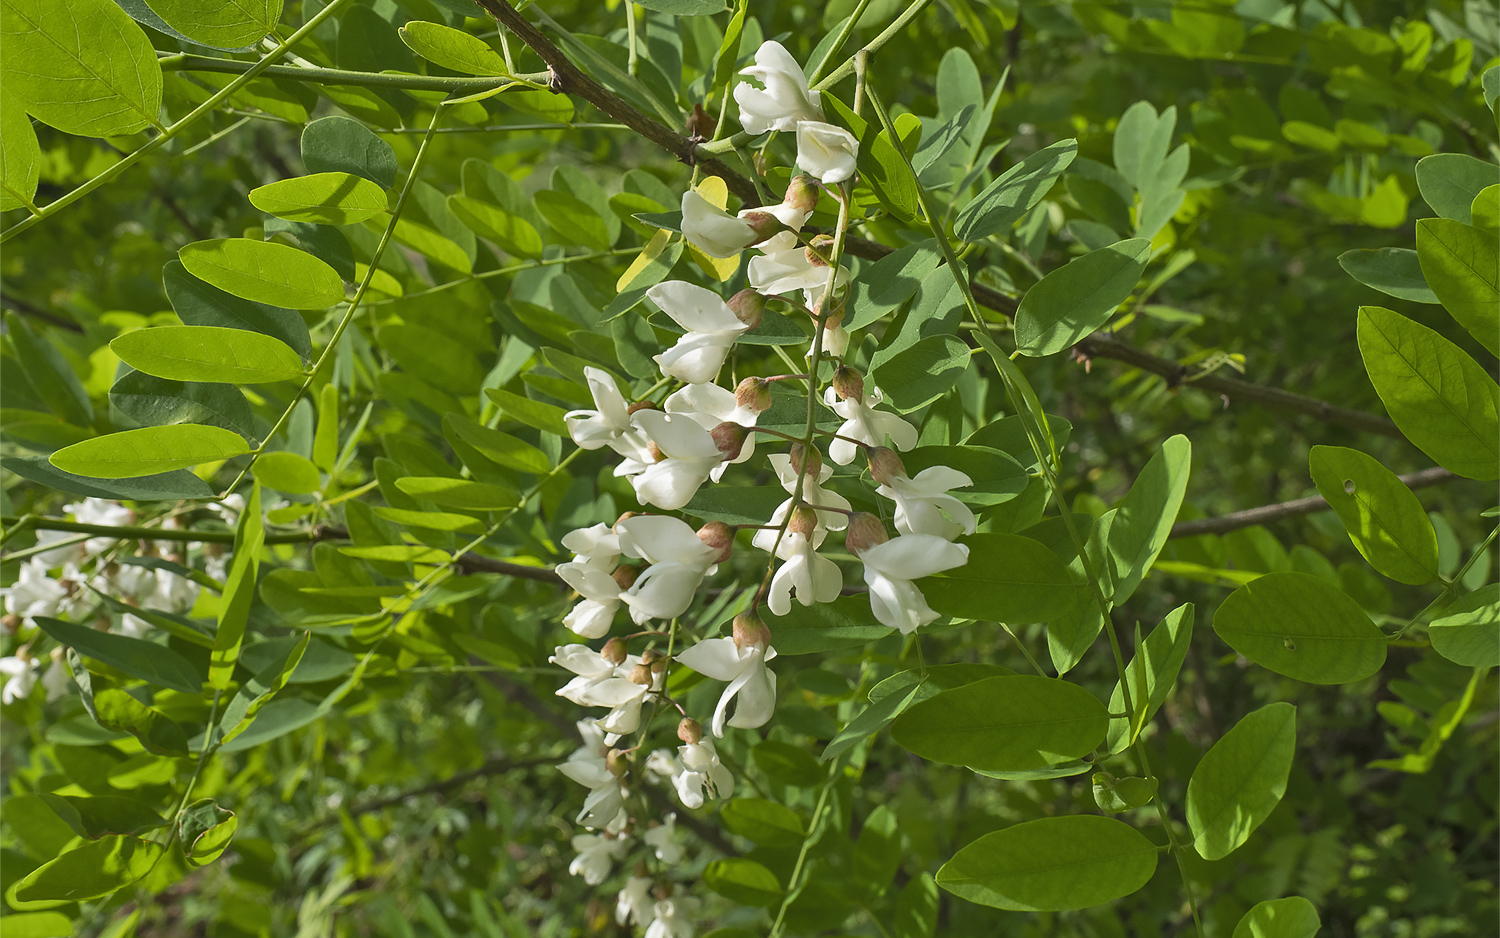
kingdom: Plantae
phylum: Tracheophyta
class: Magnoliopsida
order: Fabales
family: Fabaceae
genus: Robinia
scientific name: Robinia pseudoacacia
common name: Black locust
